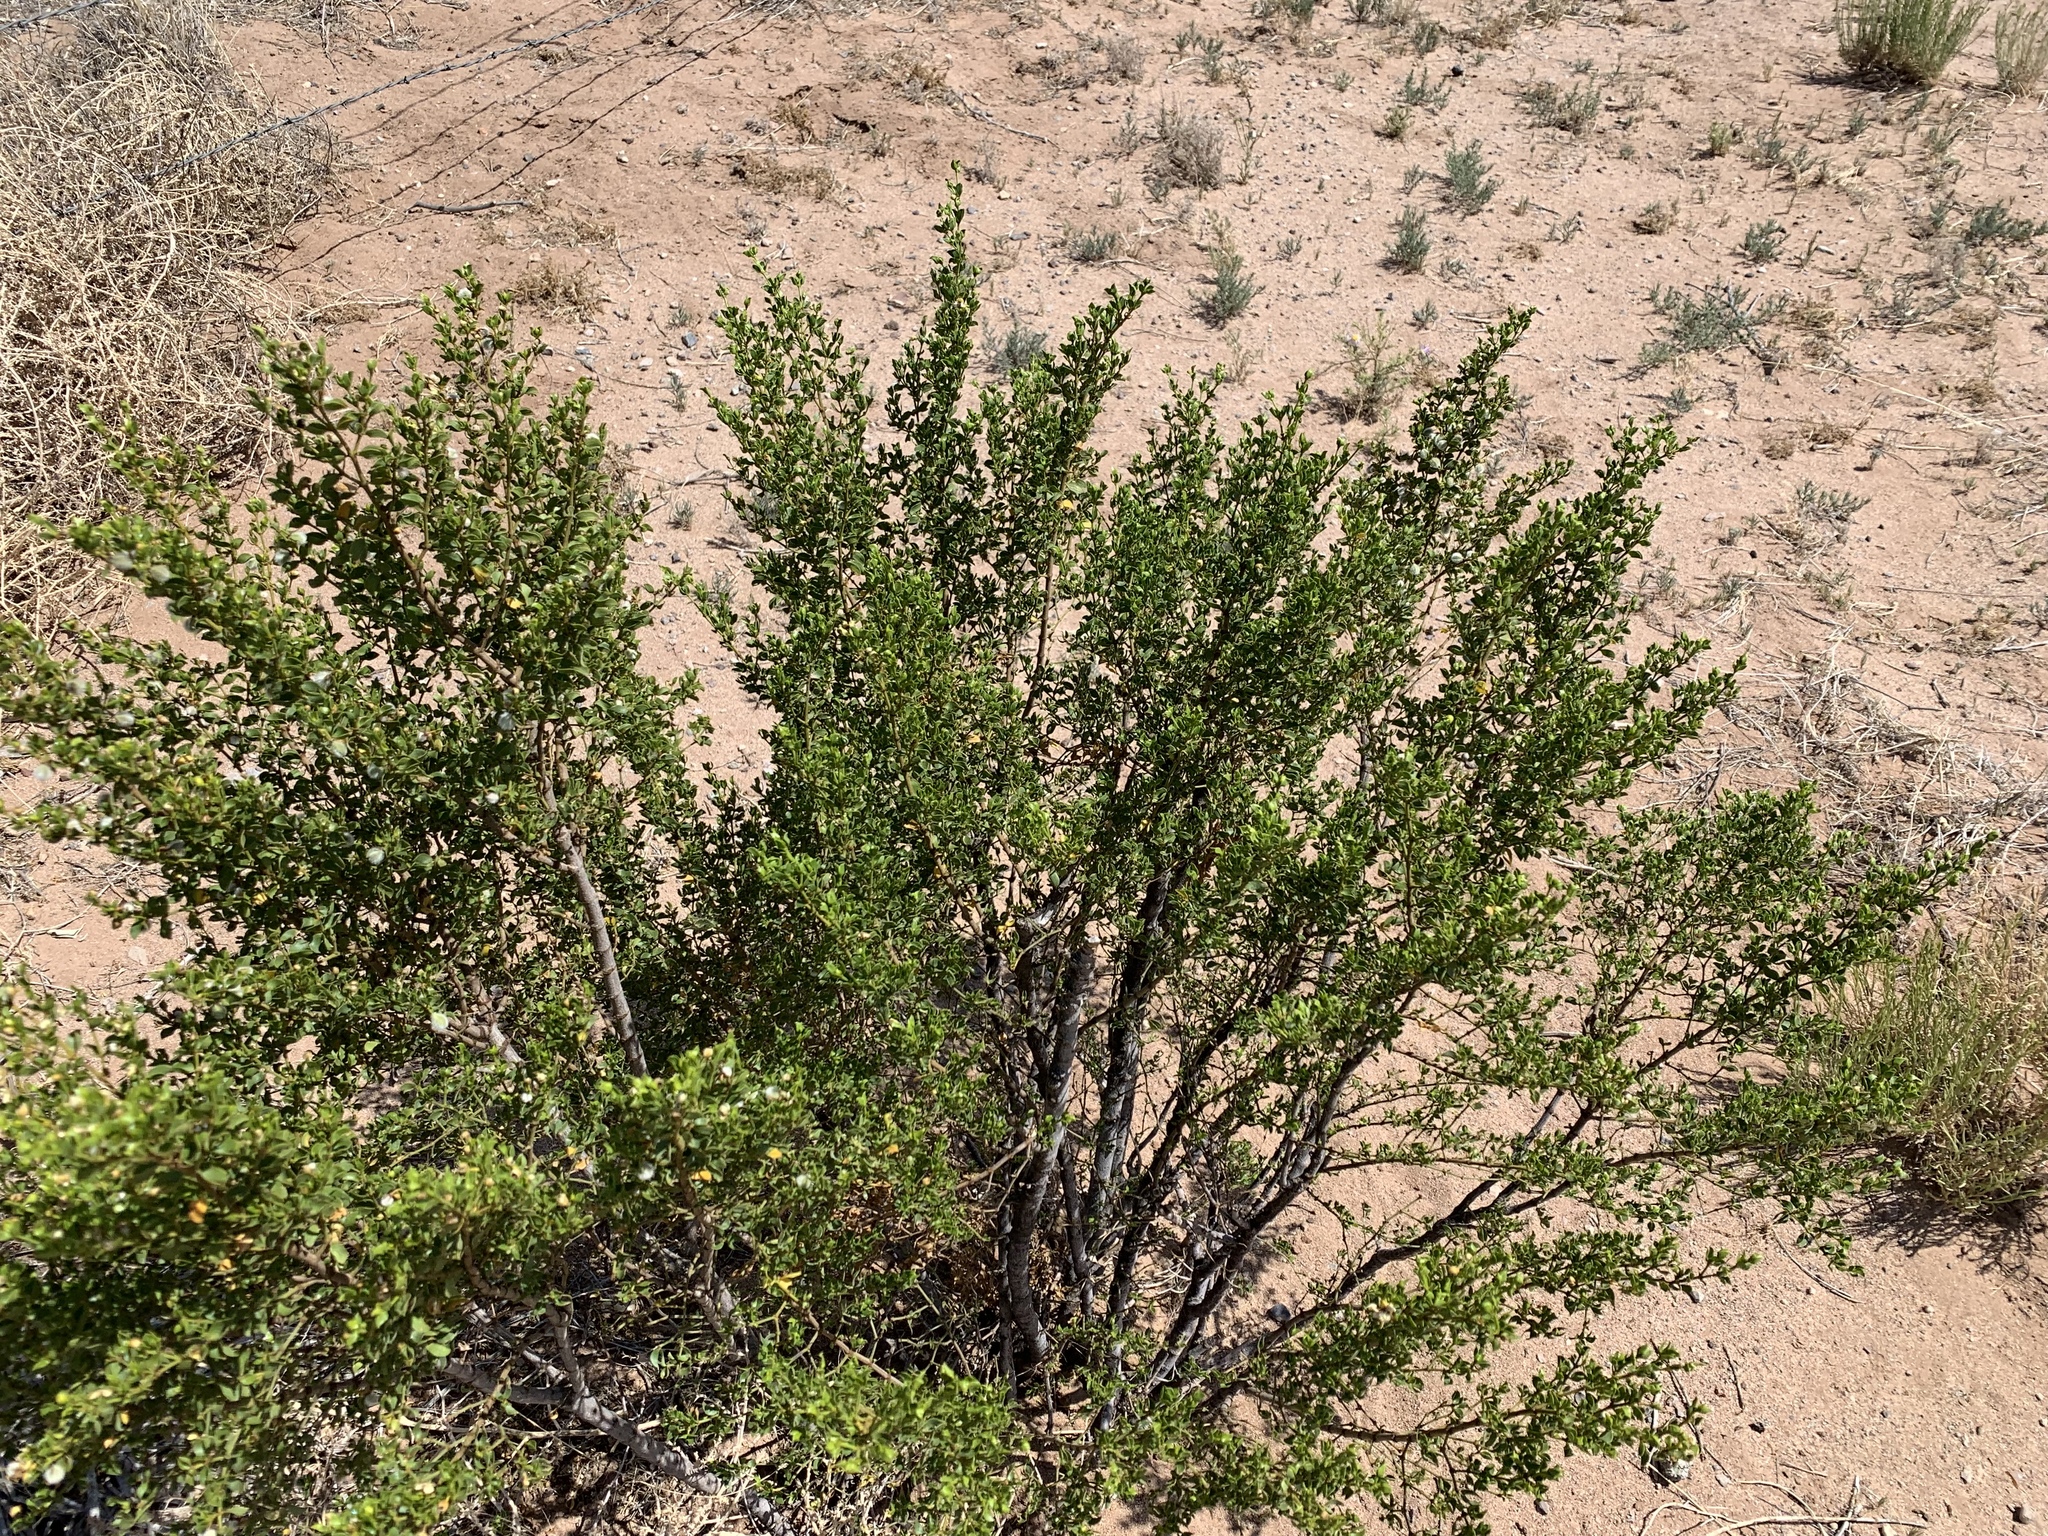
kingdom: Plantae
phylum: Tracheophyta
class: Magnoliopsida
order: Zygophyllales
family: Zygophyllaceae
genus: Larrea
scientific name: Larrea tridentata
